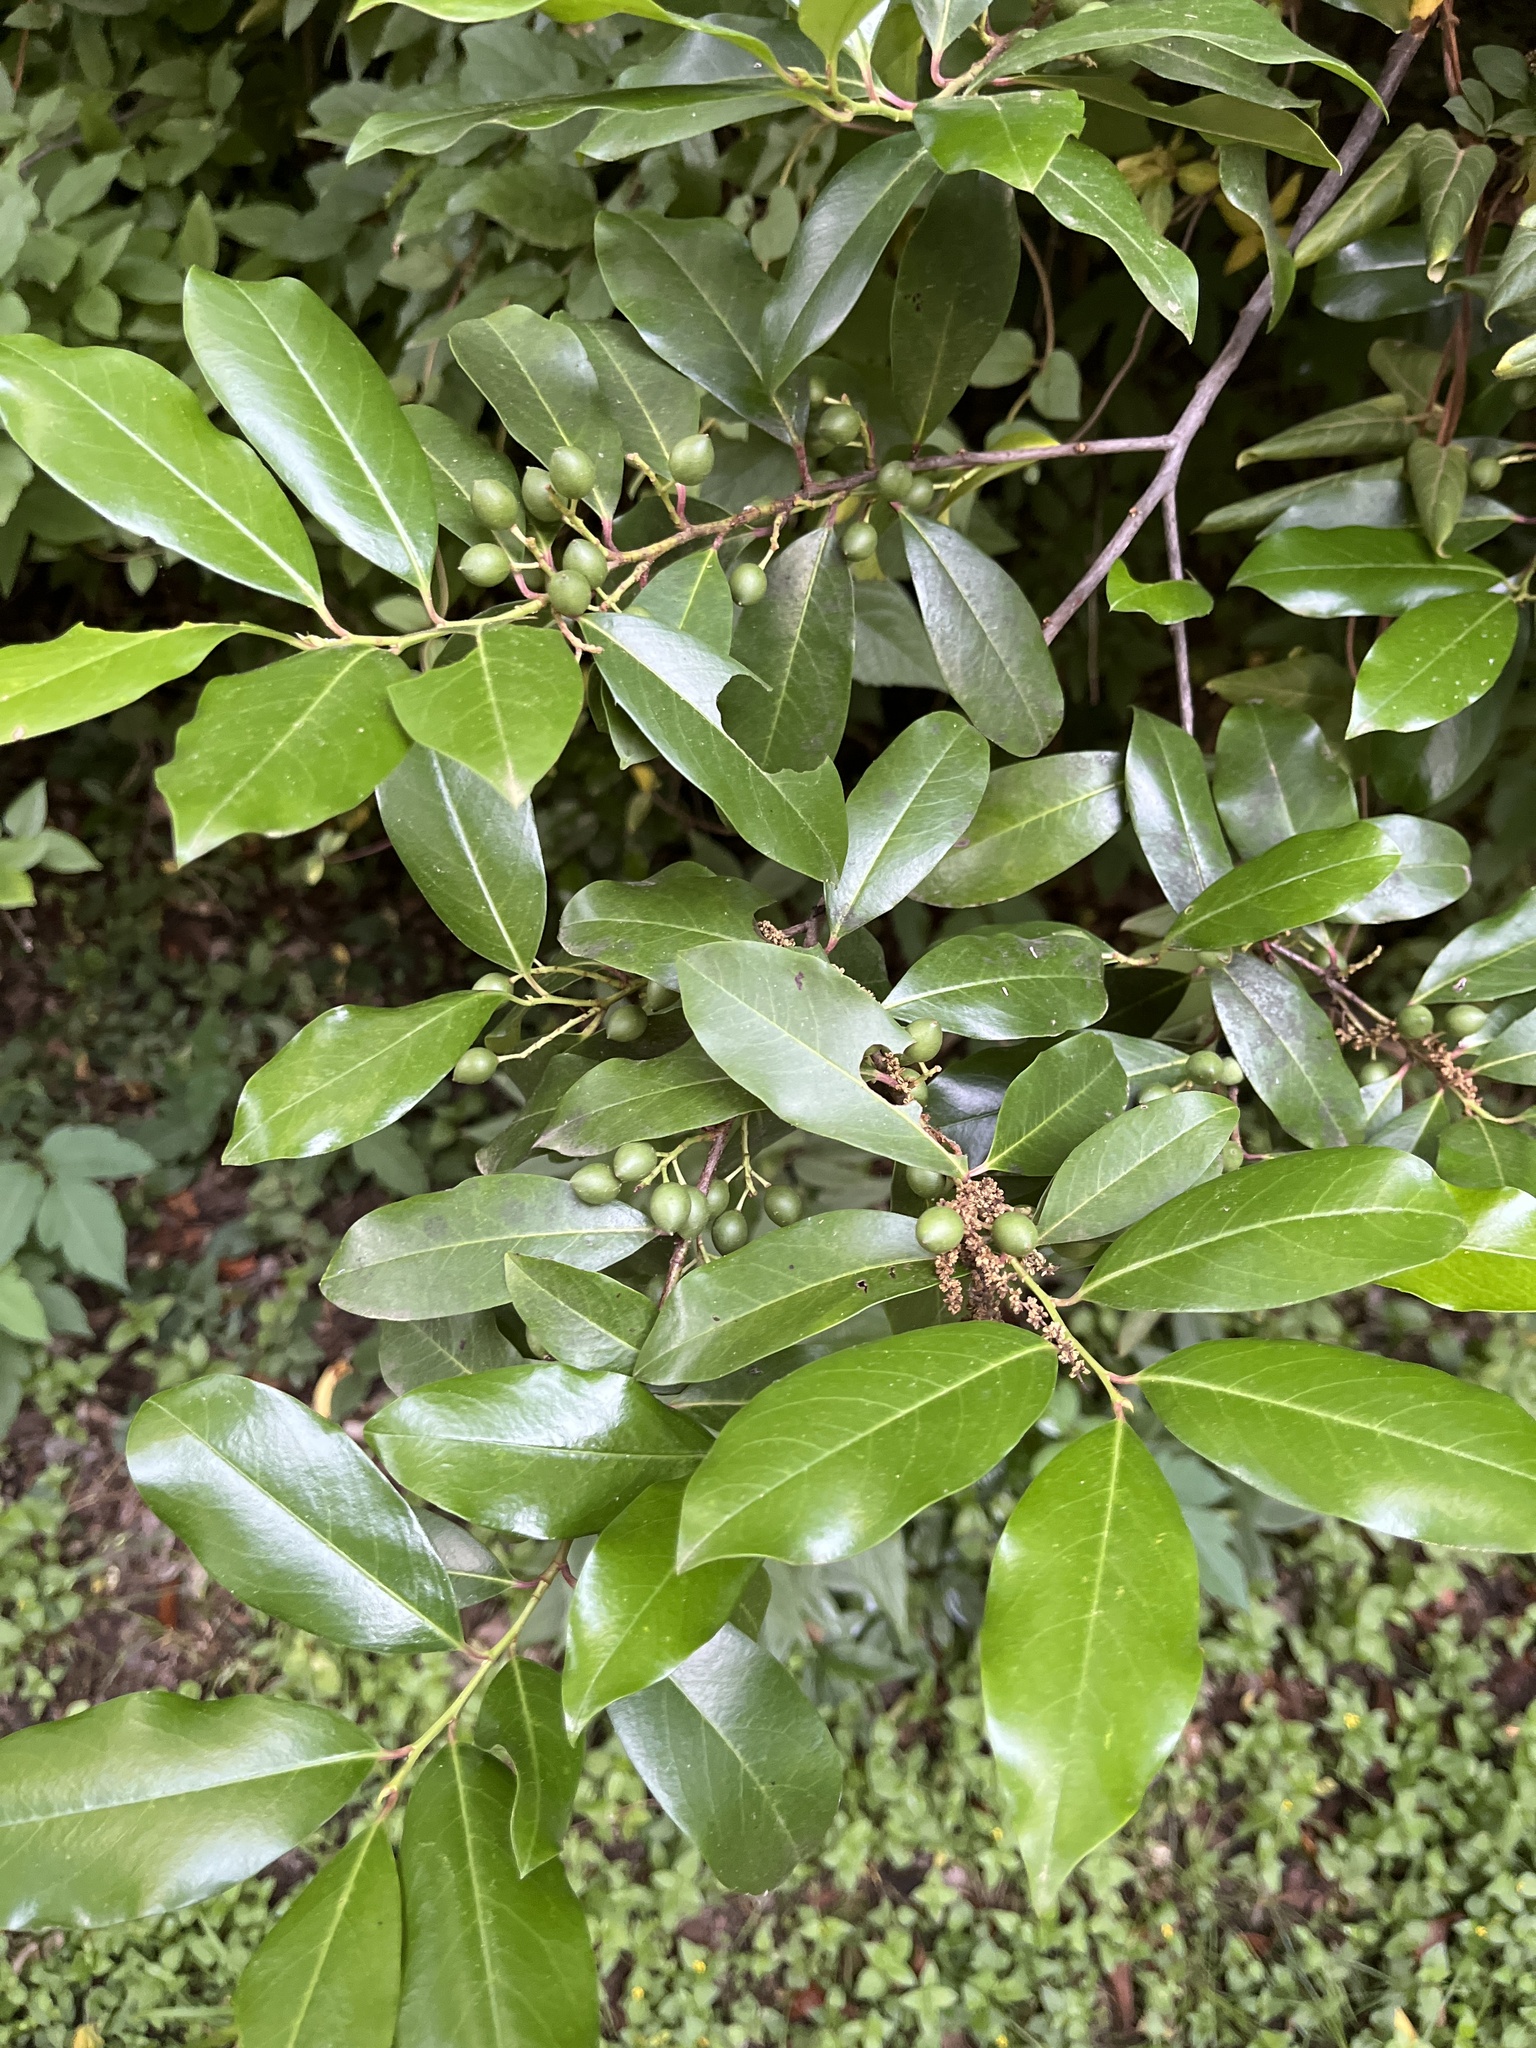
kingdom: Plantae
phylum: Tracheophyta
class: Magnoliopsida
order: Rosales
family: Rosaceae
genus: Prunus
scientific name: Prunus caroliniana
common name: Carolina laurel cherry
